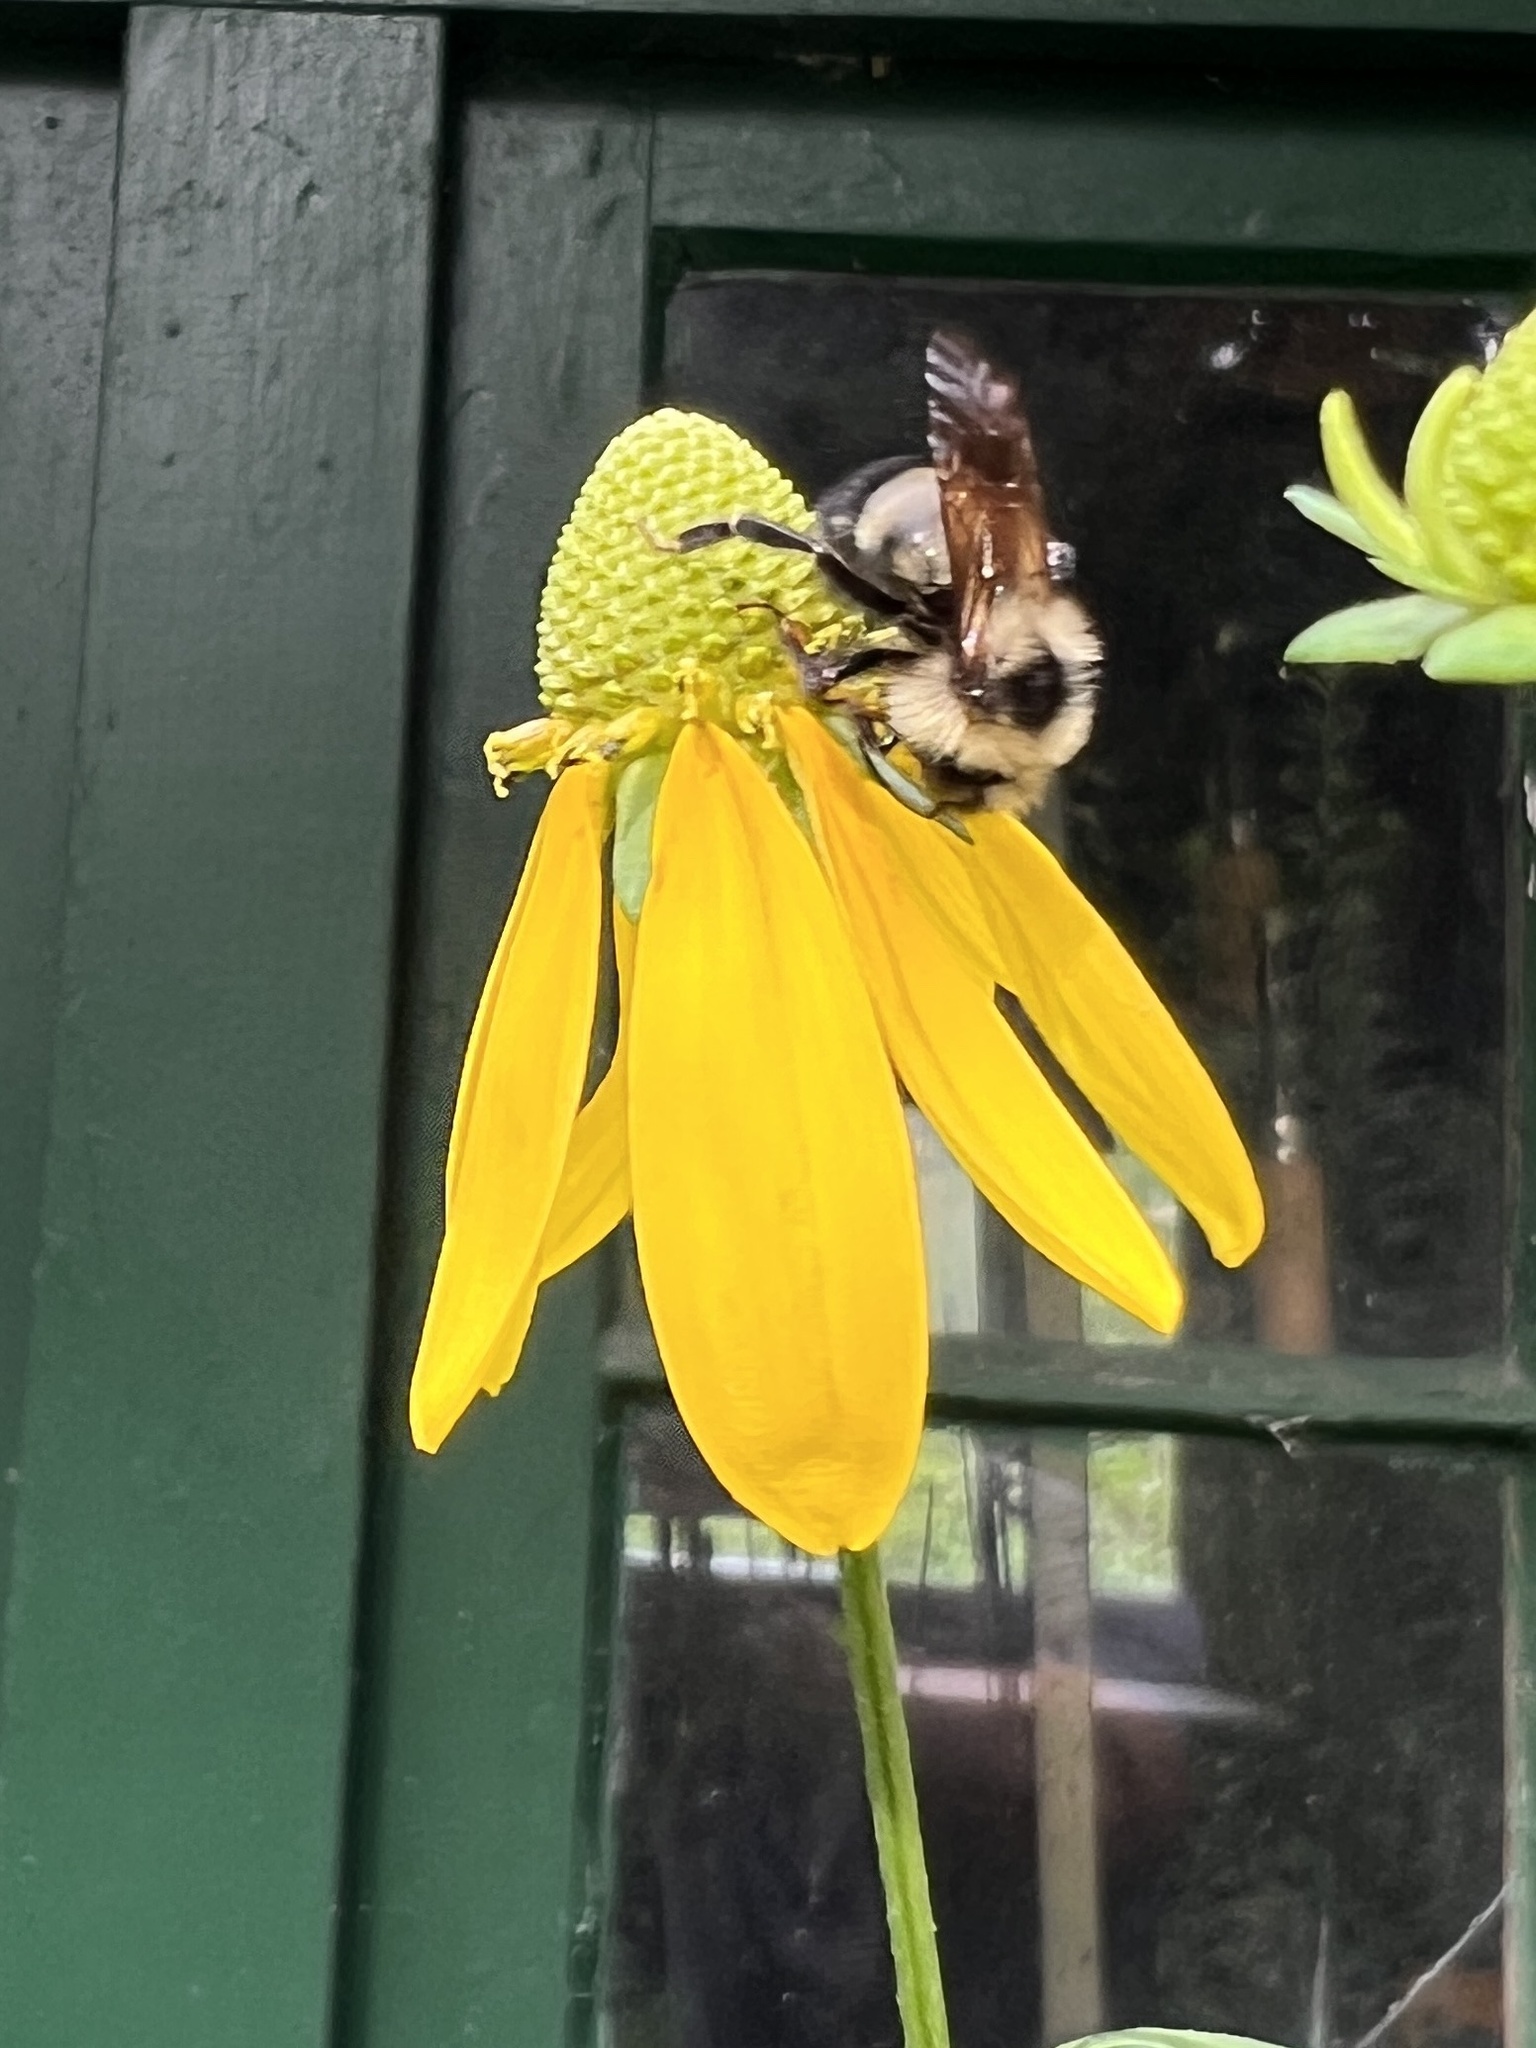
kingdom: Animalia
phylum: Arthropoda
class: Insecta
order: Hymenoptera
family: Apidae
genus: Bombus
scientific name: Bombus citrinus
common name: Lemon cuckoo bumble bee
